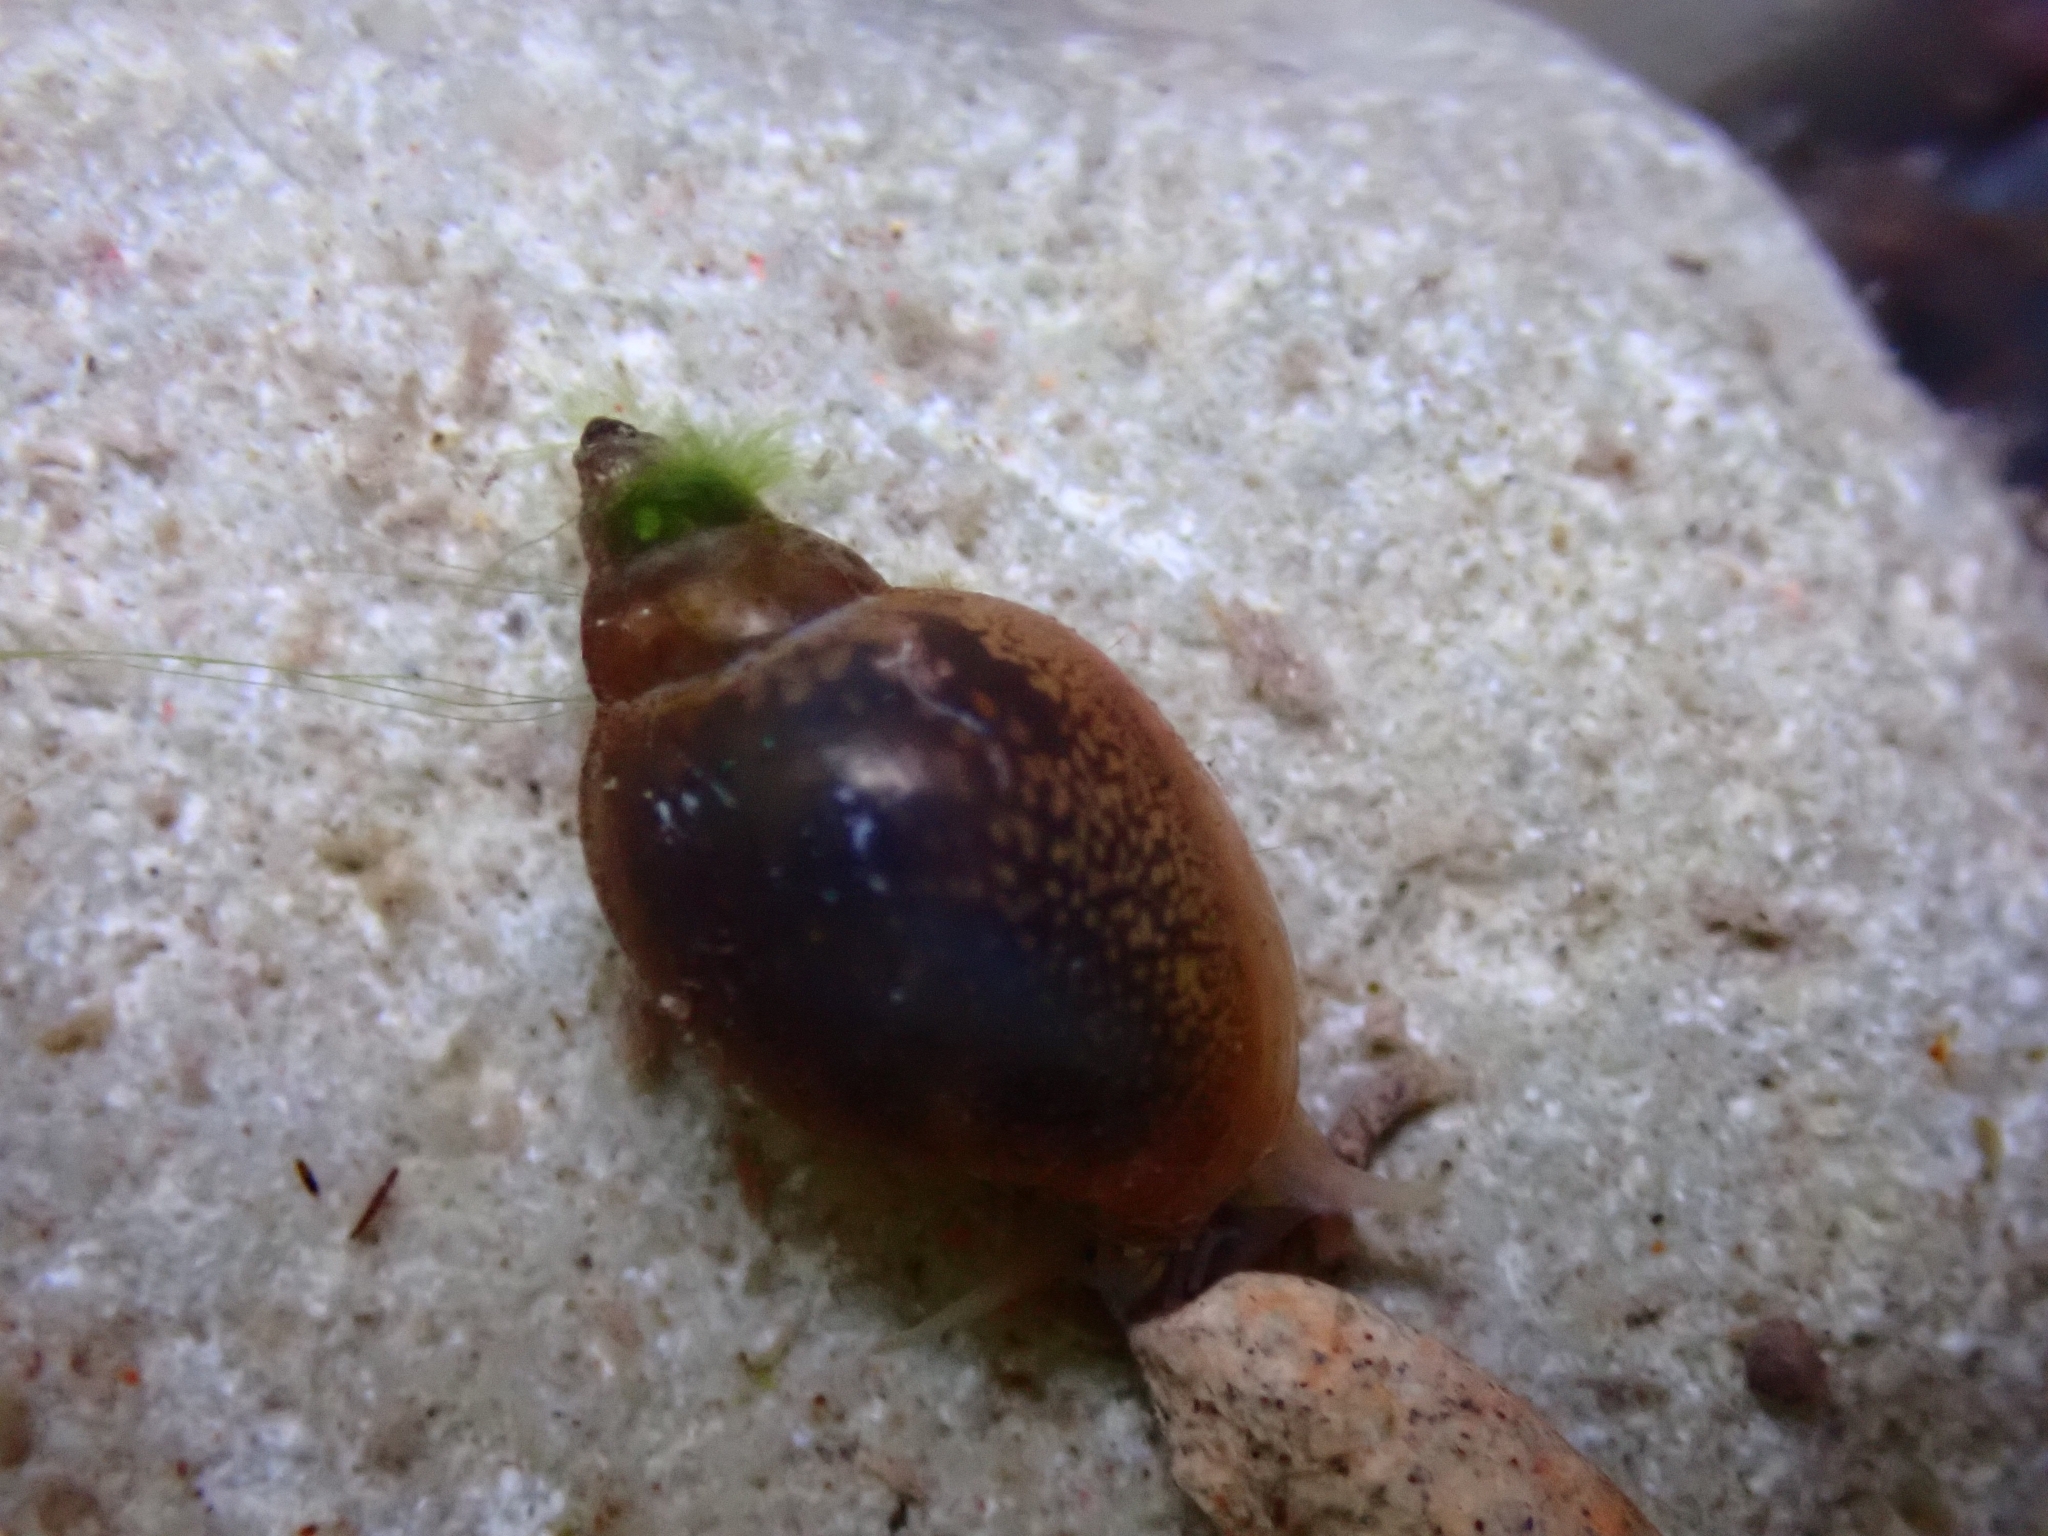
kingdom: Animalia
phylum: Mollusca
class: Gastropoda
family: Physidae
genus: Physella
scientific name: Physella acuta
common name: European physa
